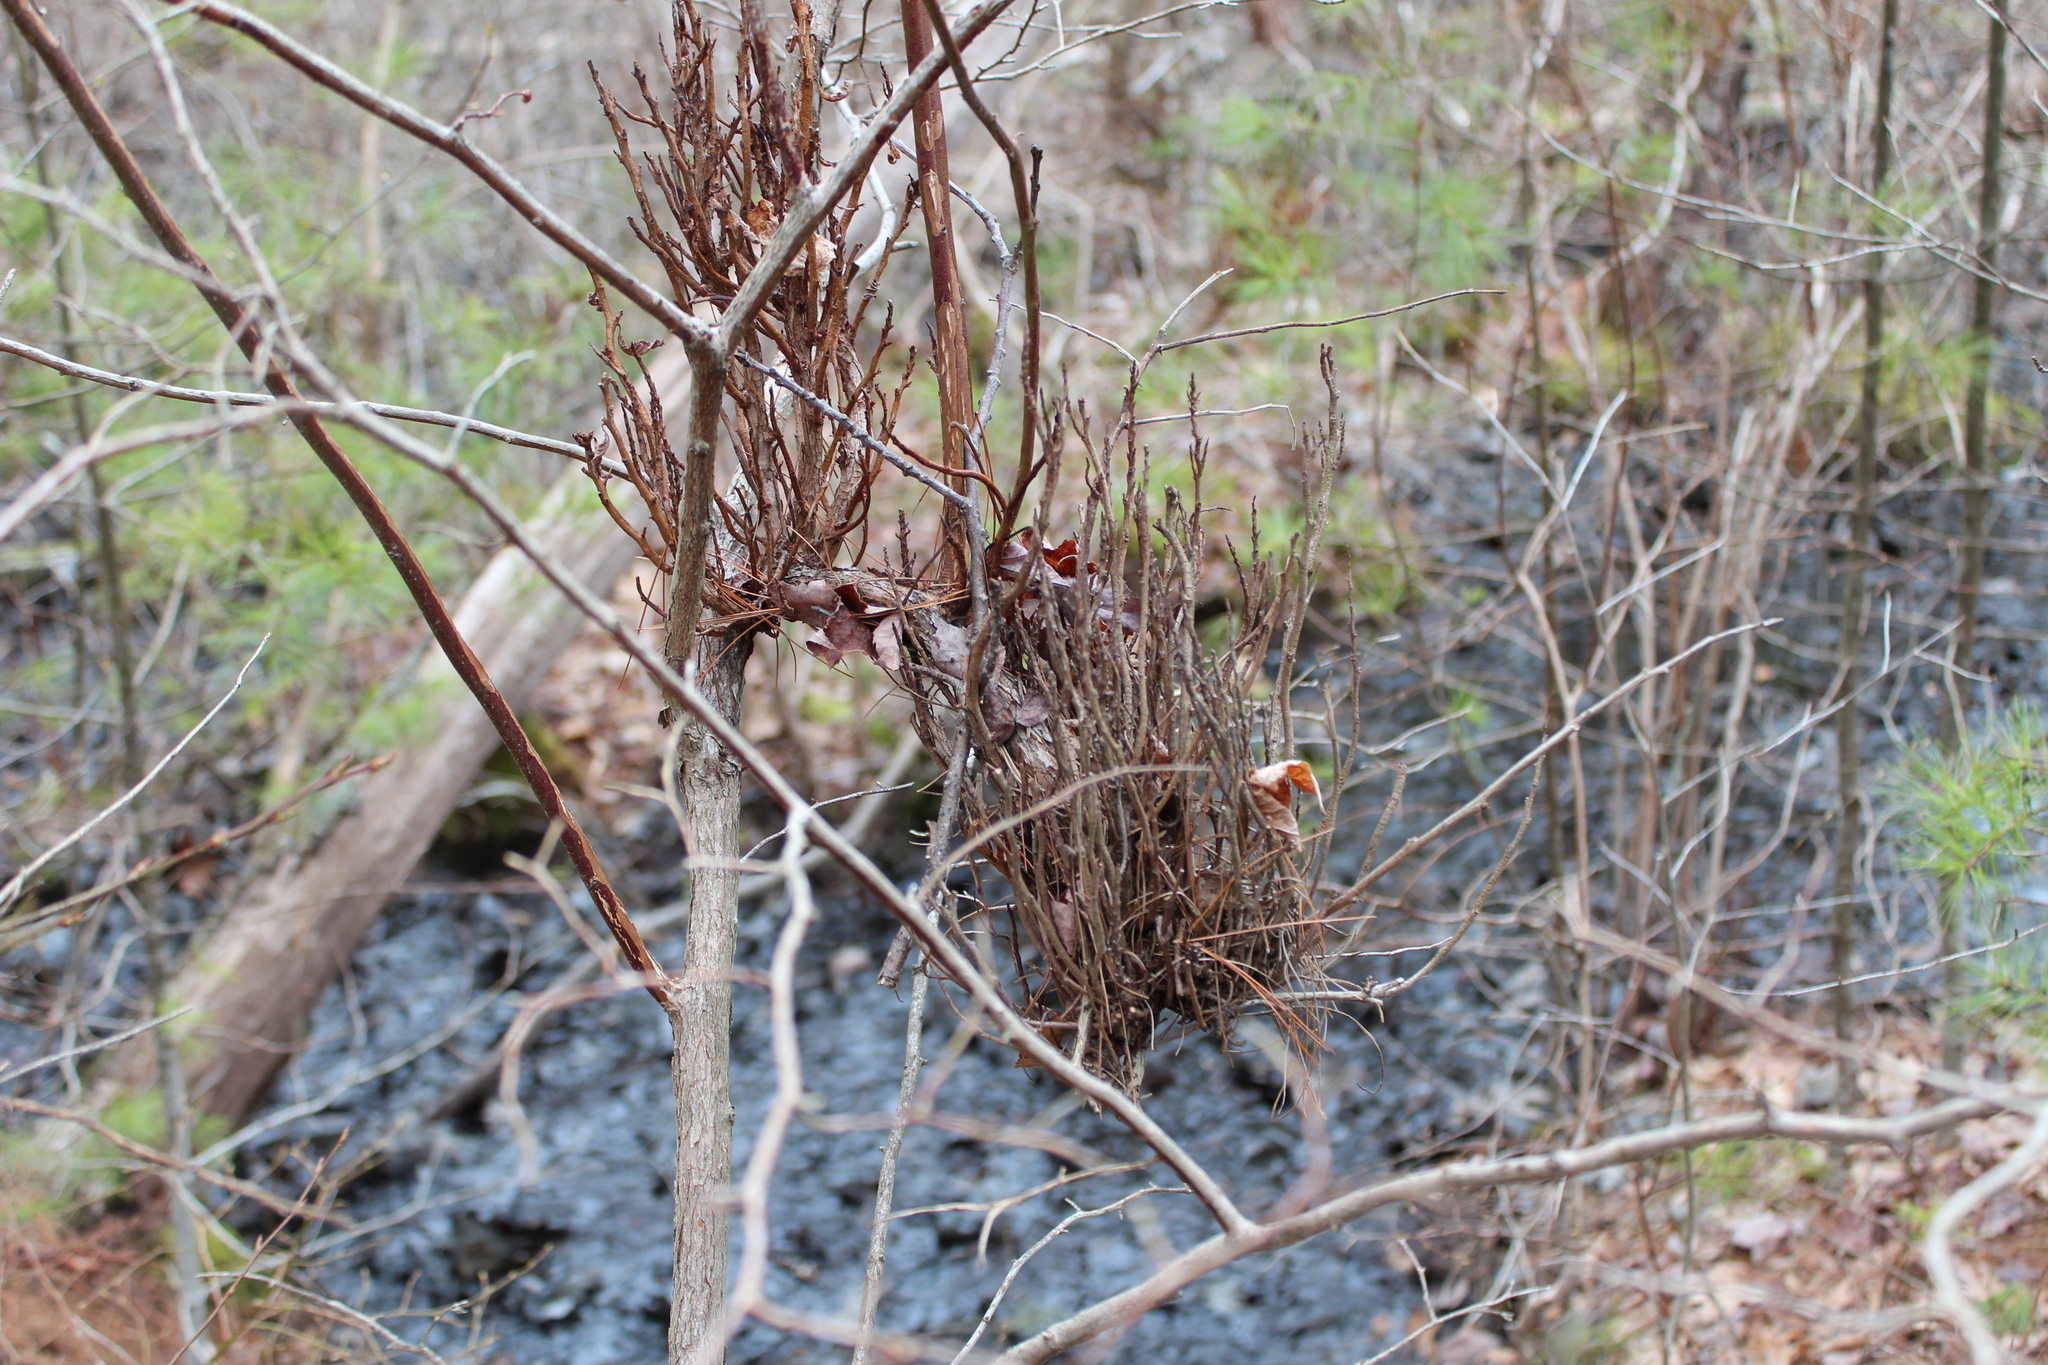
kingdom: Fungi
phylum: Basidiomycota
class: Pucciniomycetes
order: Pucciniales
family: Pucciniastraceae
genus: Calyptospora
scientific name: Calyptospora columnaris
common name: Huckleberry broom rust fungus
